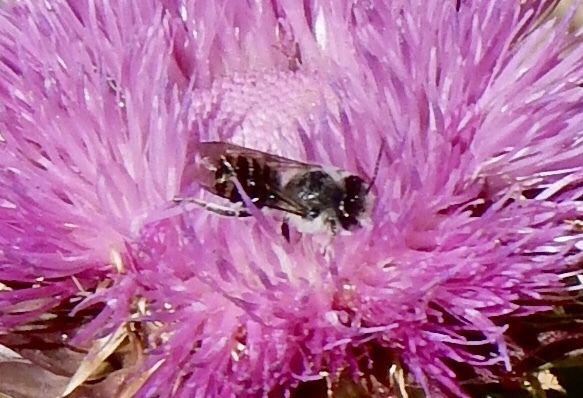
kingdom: Animalia
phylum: Arthropoda
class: Insecta
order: Hymenoptera
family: Megachilidae
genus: Megachile
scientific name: Megachile
